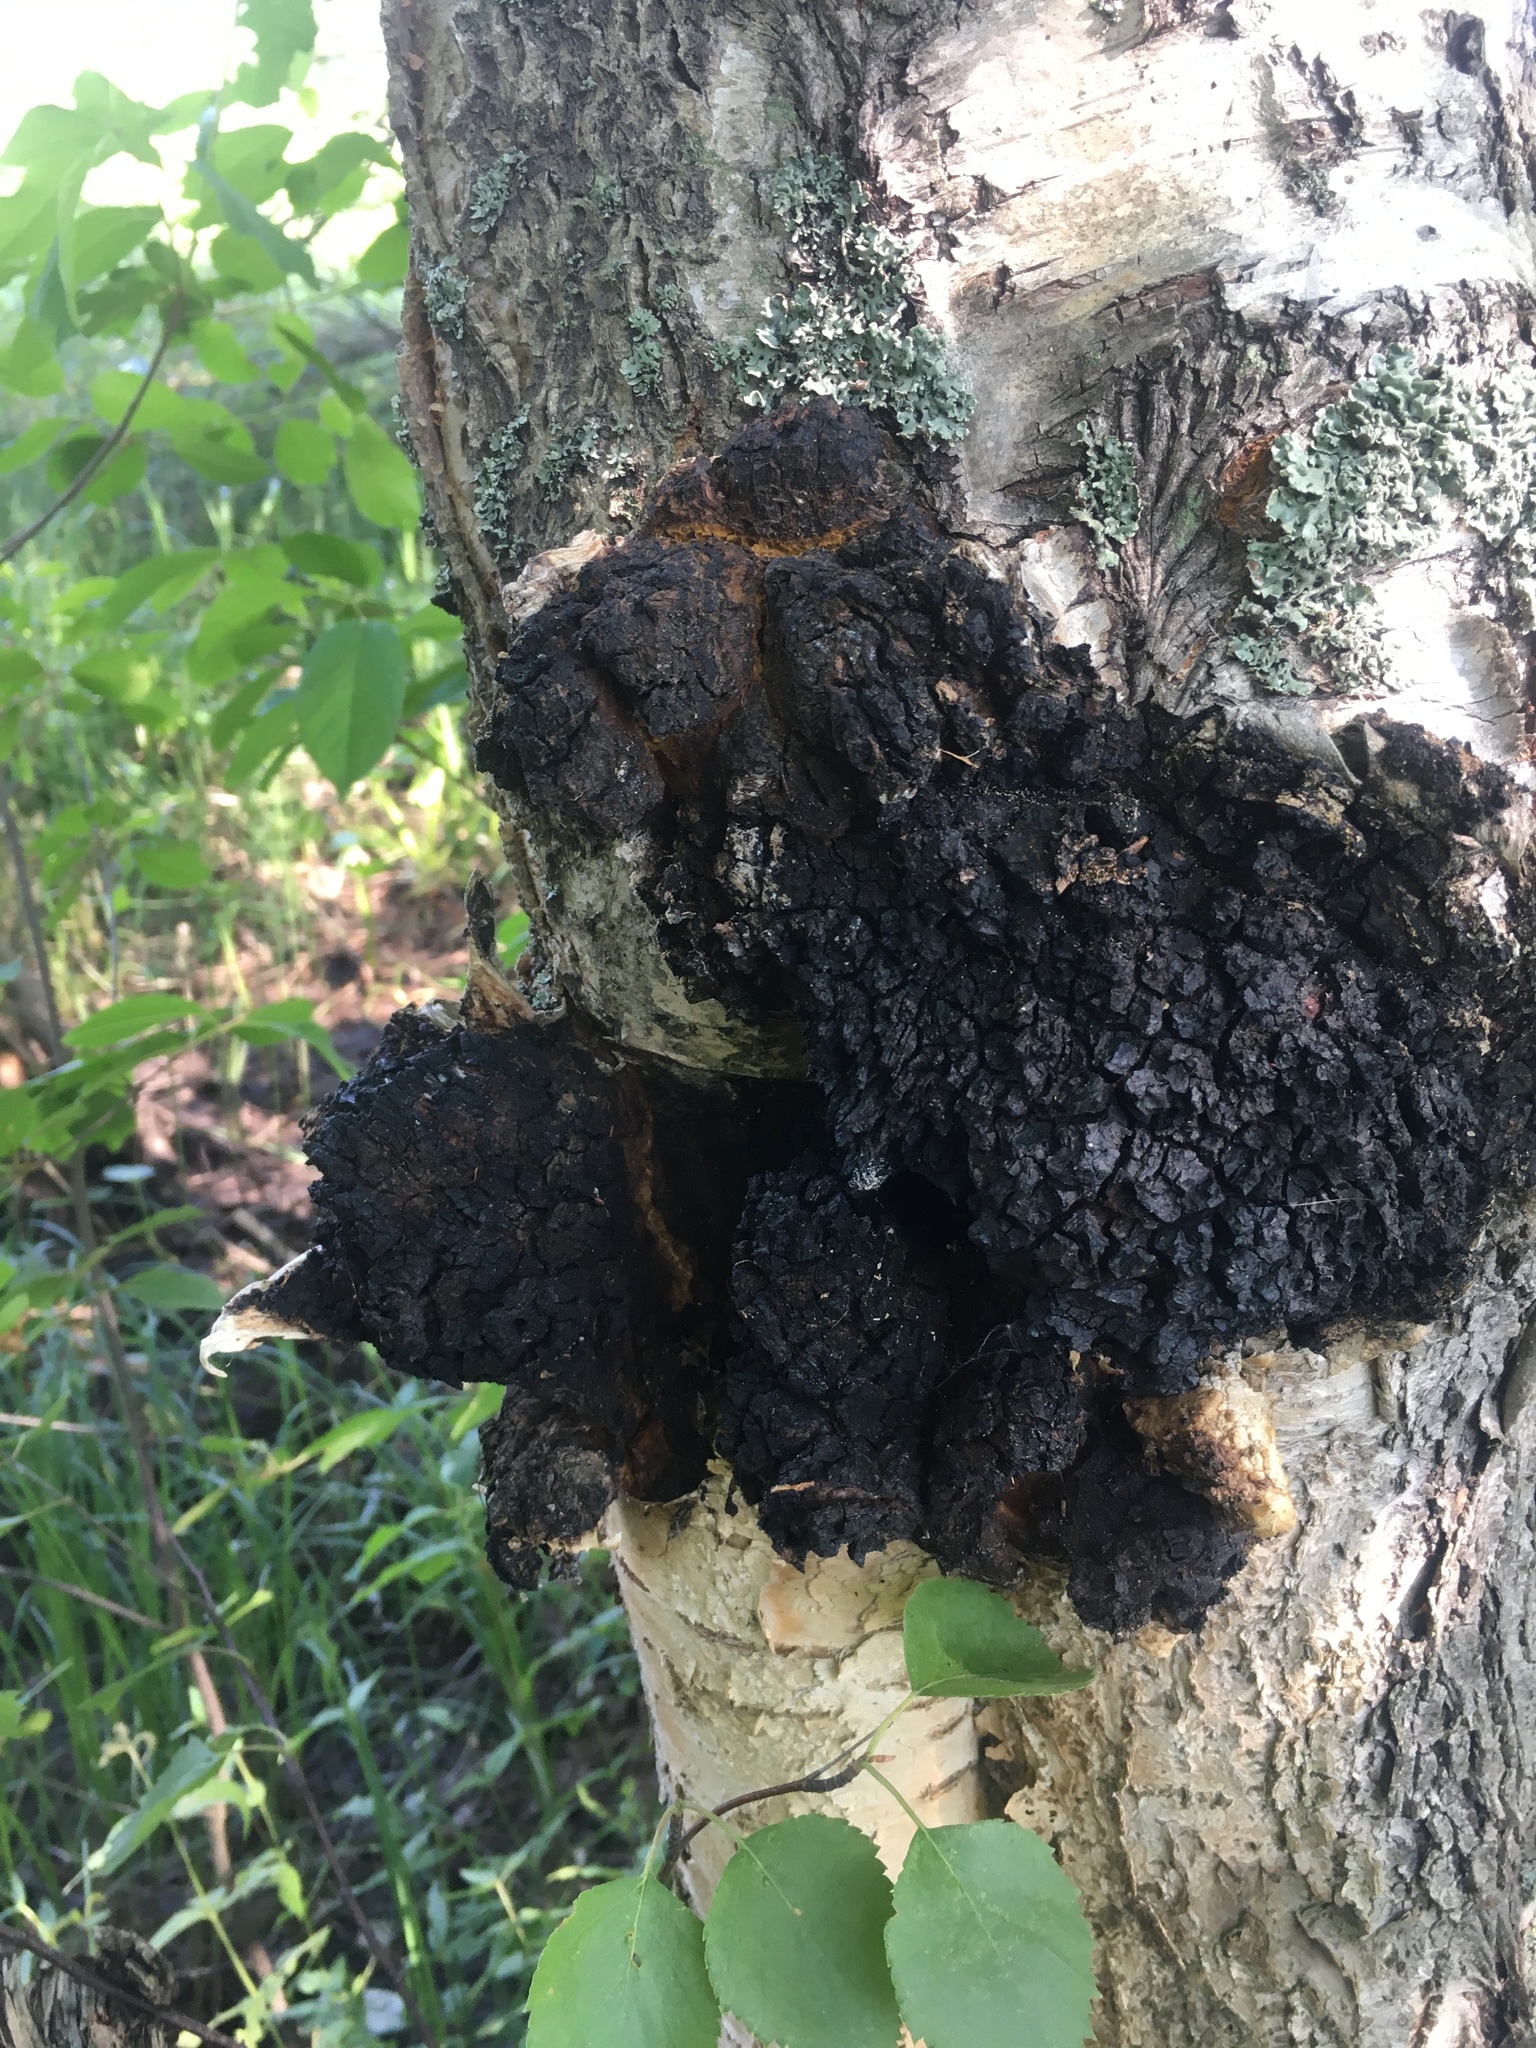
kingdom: Fungi
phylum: Basidiomycota
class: Agaricomycetes
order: Hymenochaetales
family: Hymenochaetaceae
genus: Inonotus
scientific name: Inonotus obliquus
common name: Chaga
